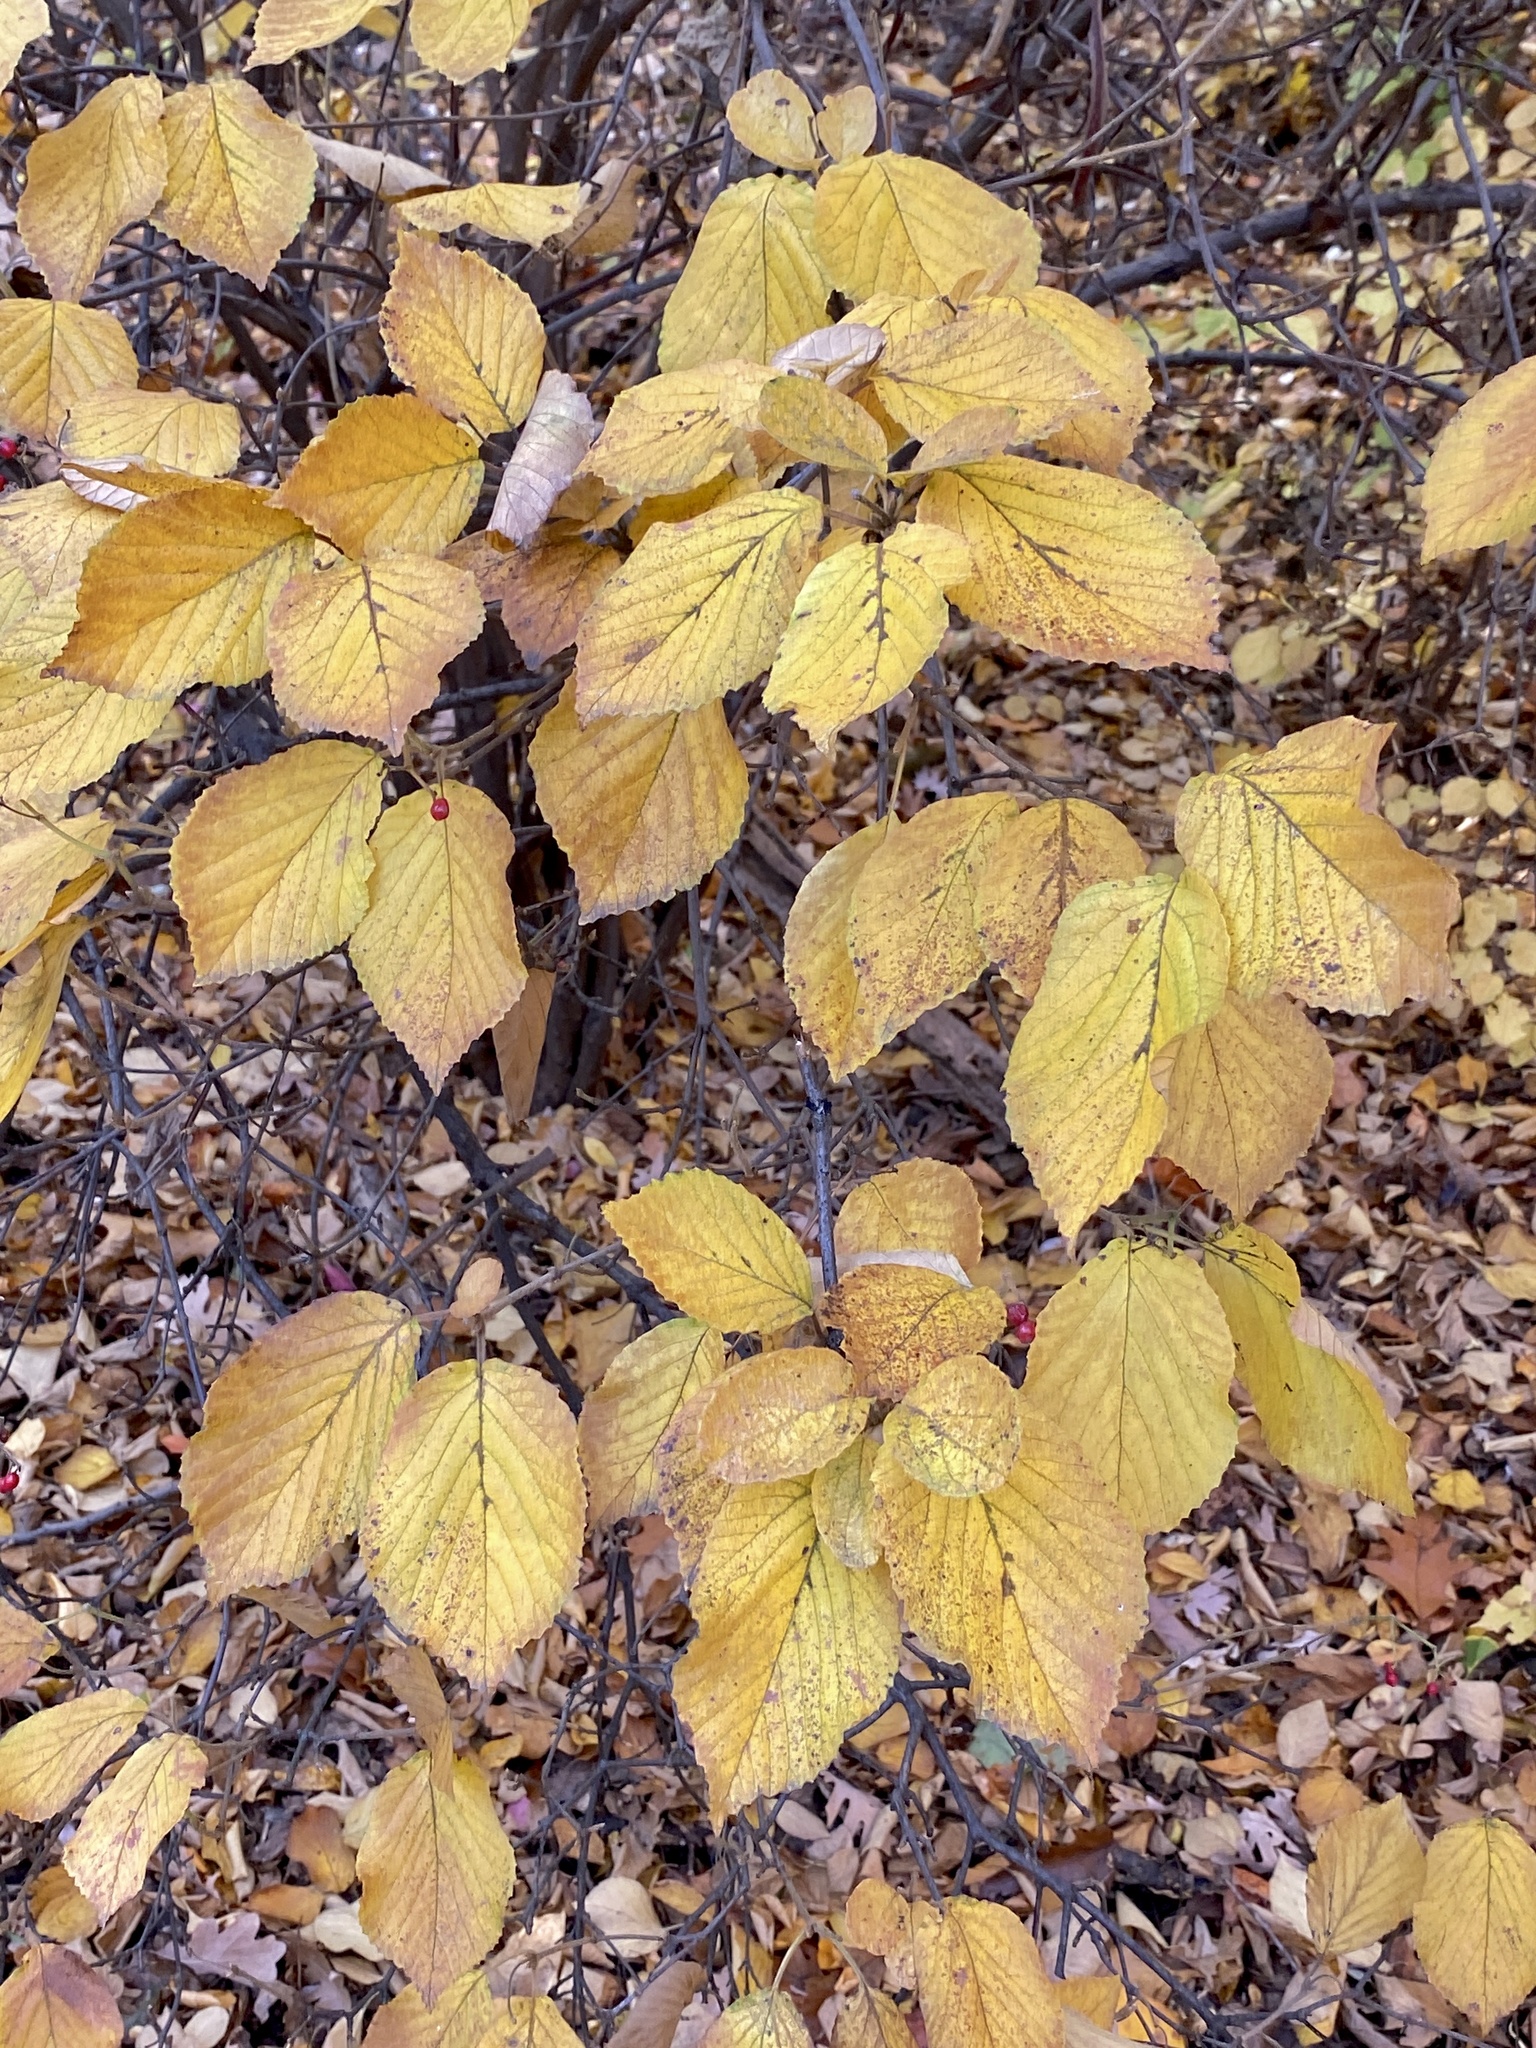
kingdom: Plantae
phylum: Tracheophyta
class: Magnoliopsida
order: Dipsacales
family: Viburnaceae
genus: Viburnum
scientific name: Viburnum dilatatum
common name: Linden arrowwood
